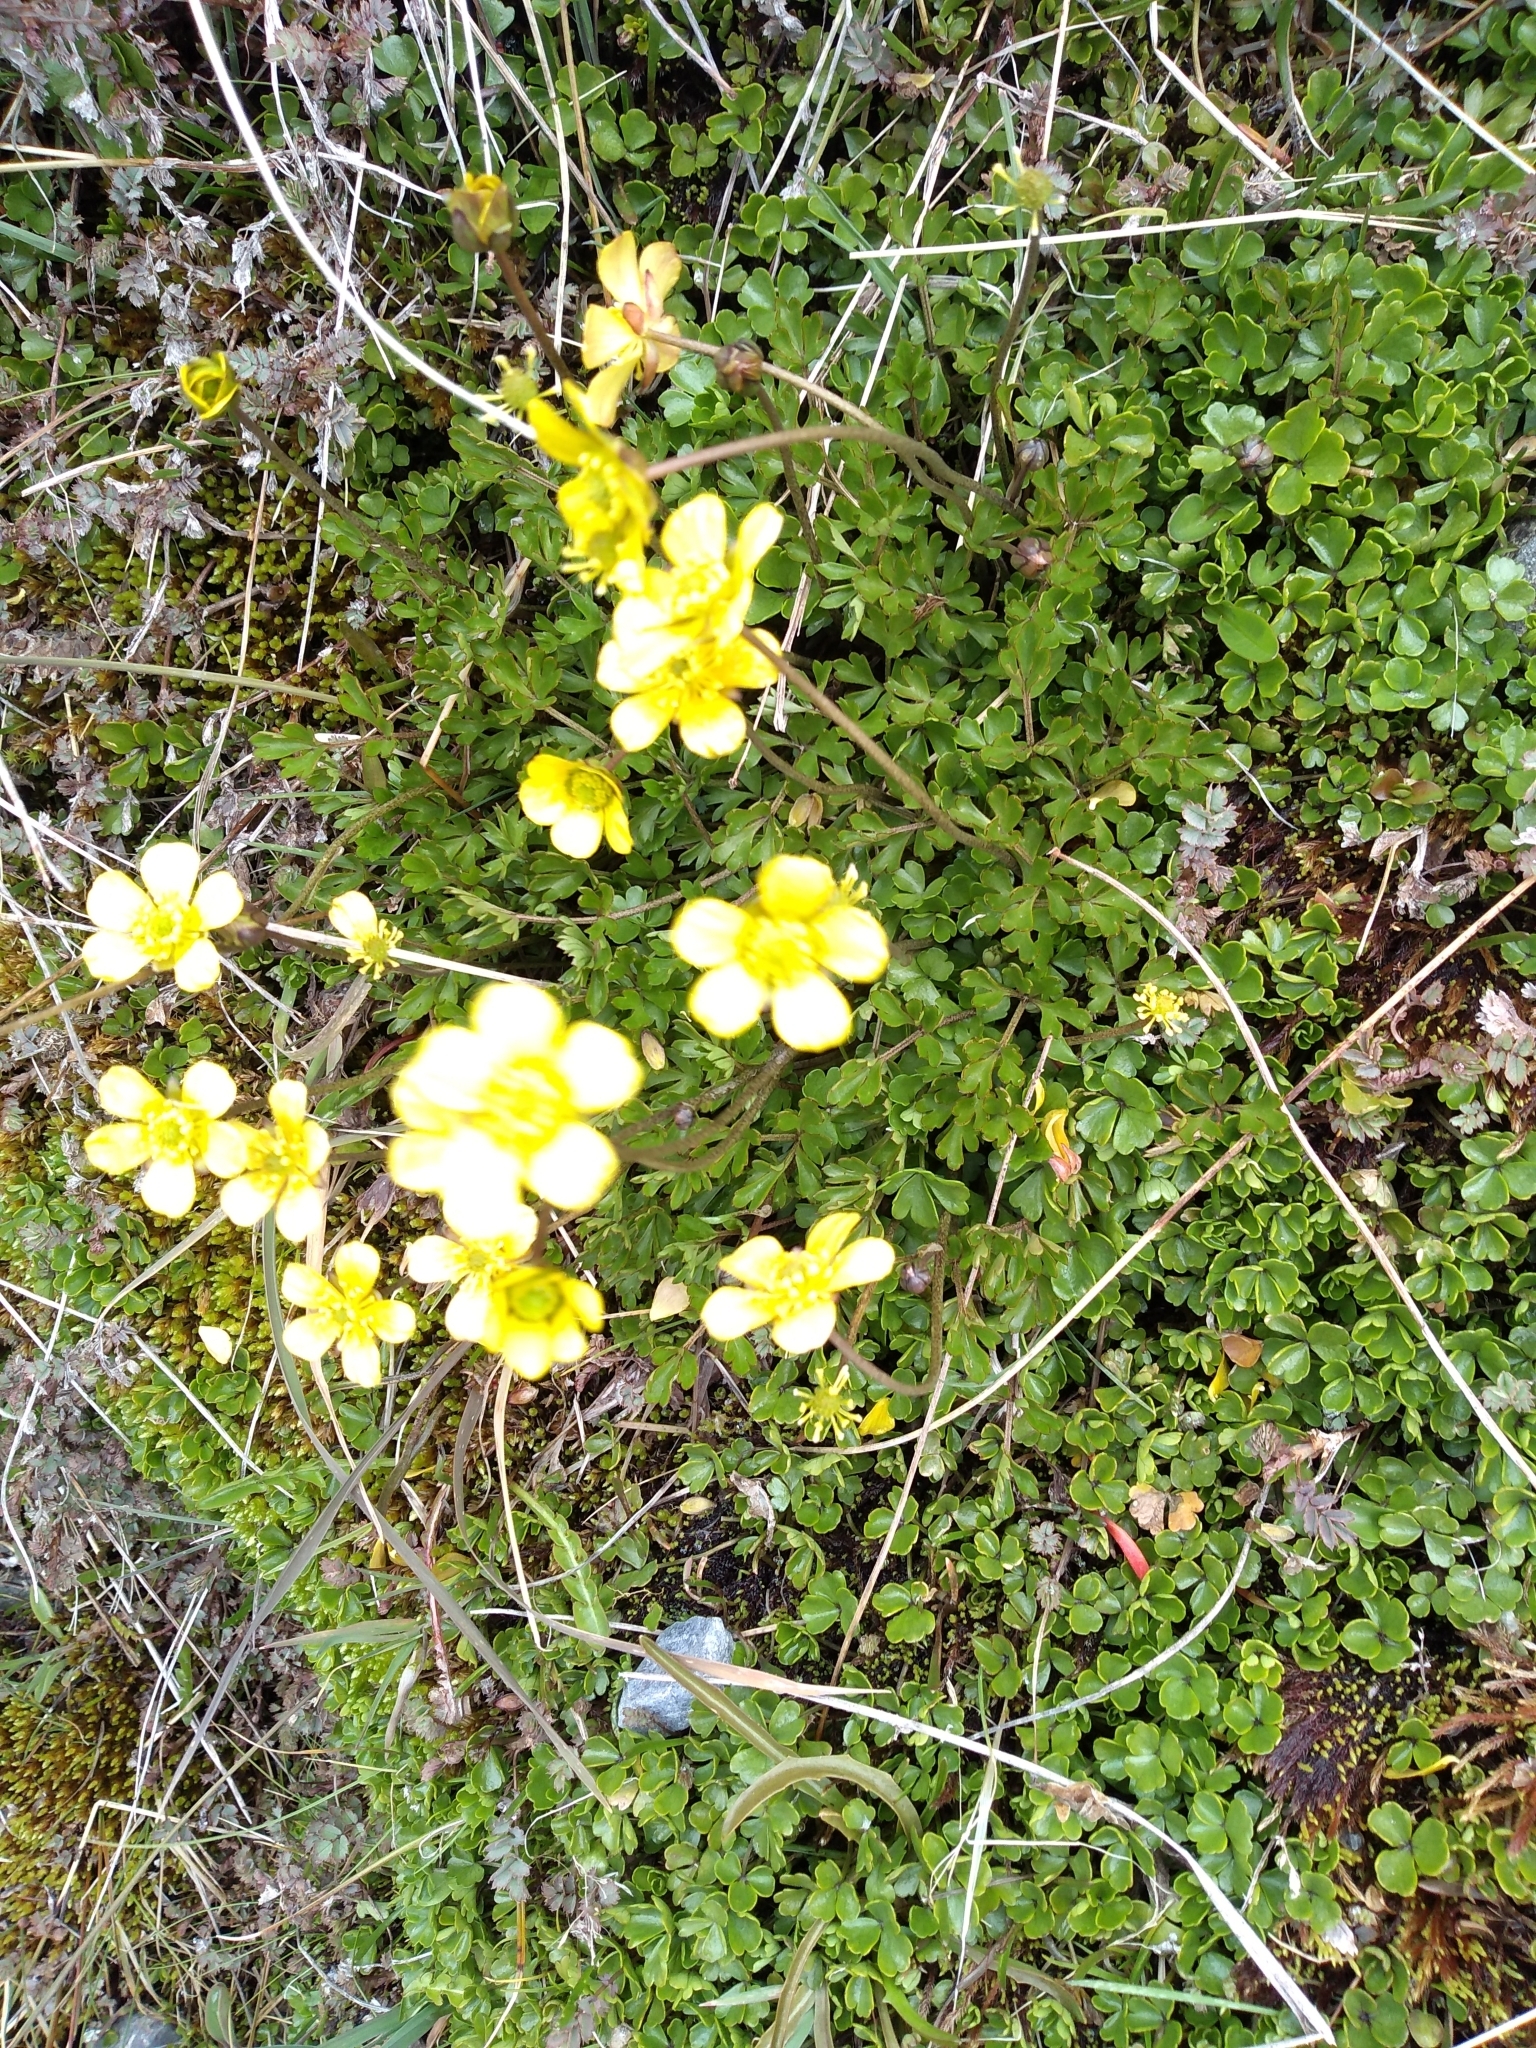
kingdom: Plantae
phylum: Tracheophyta
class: Magnoliopsida
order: Ranunculales
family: Ranunculaceae
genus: Ranunculus
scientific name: Ranunculus enysii
